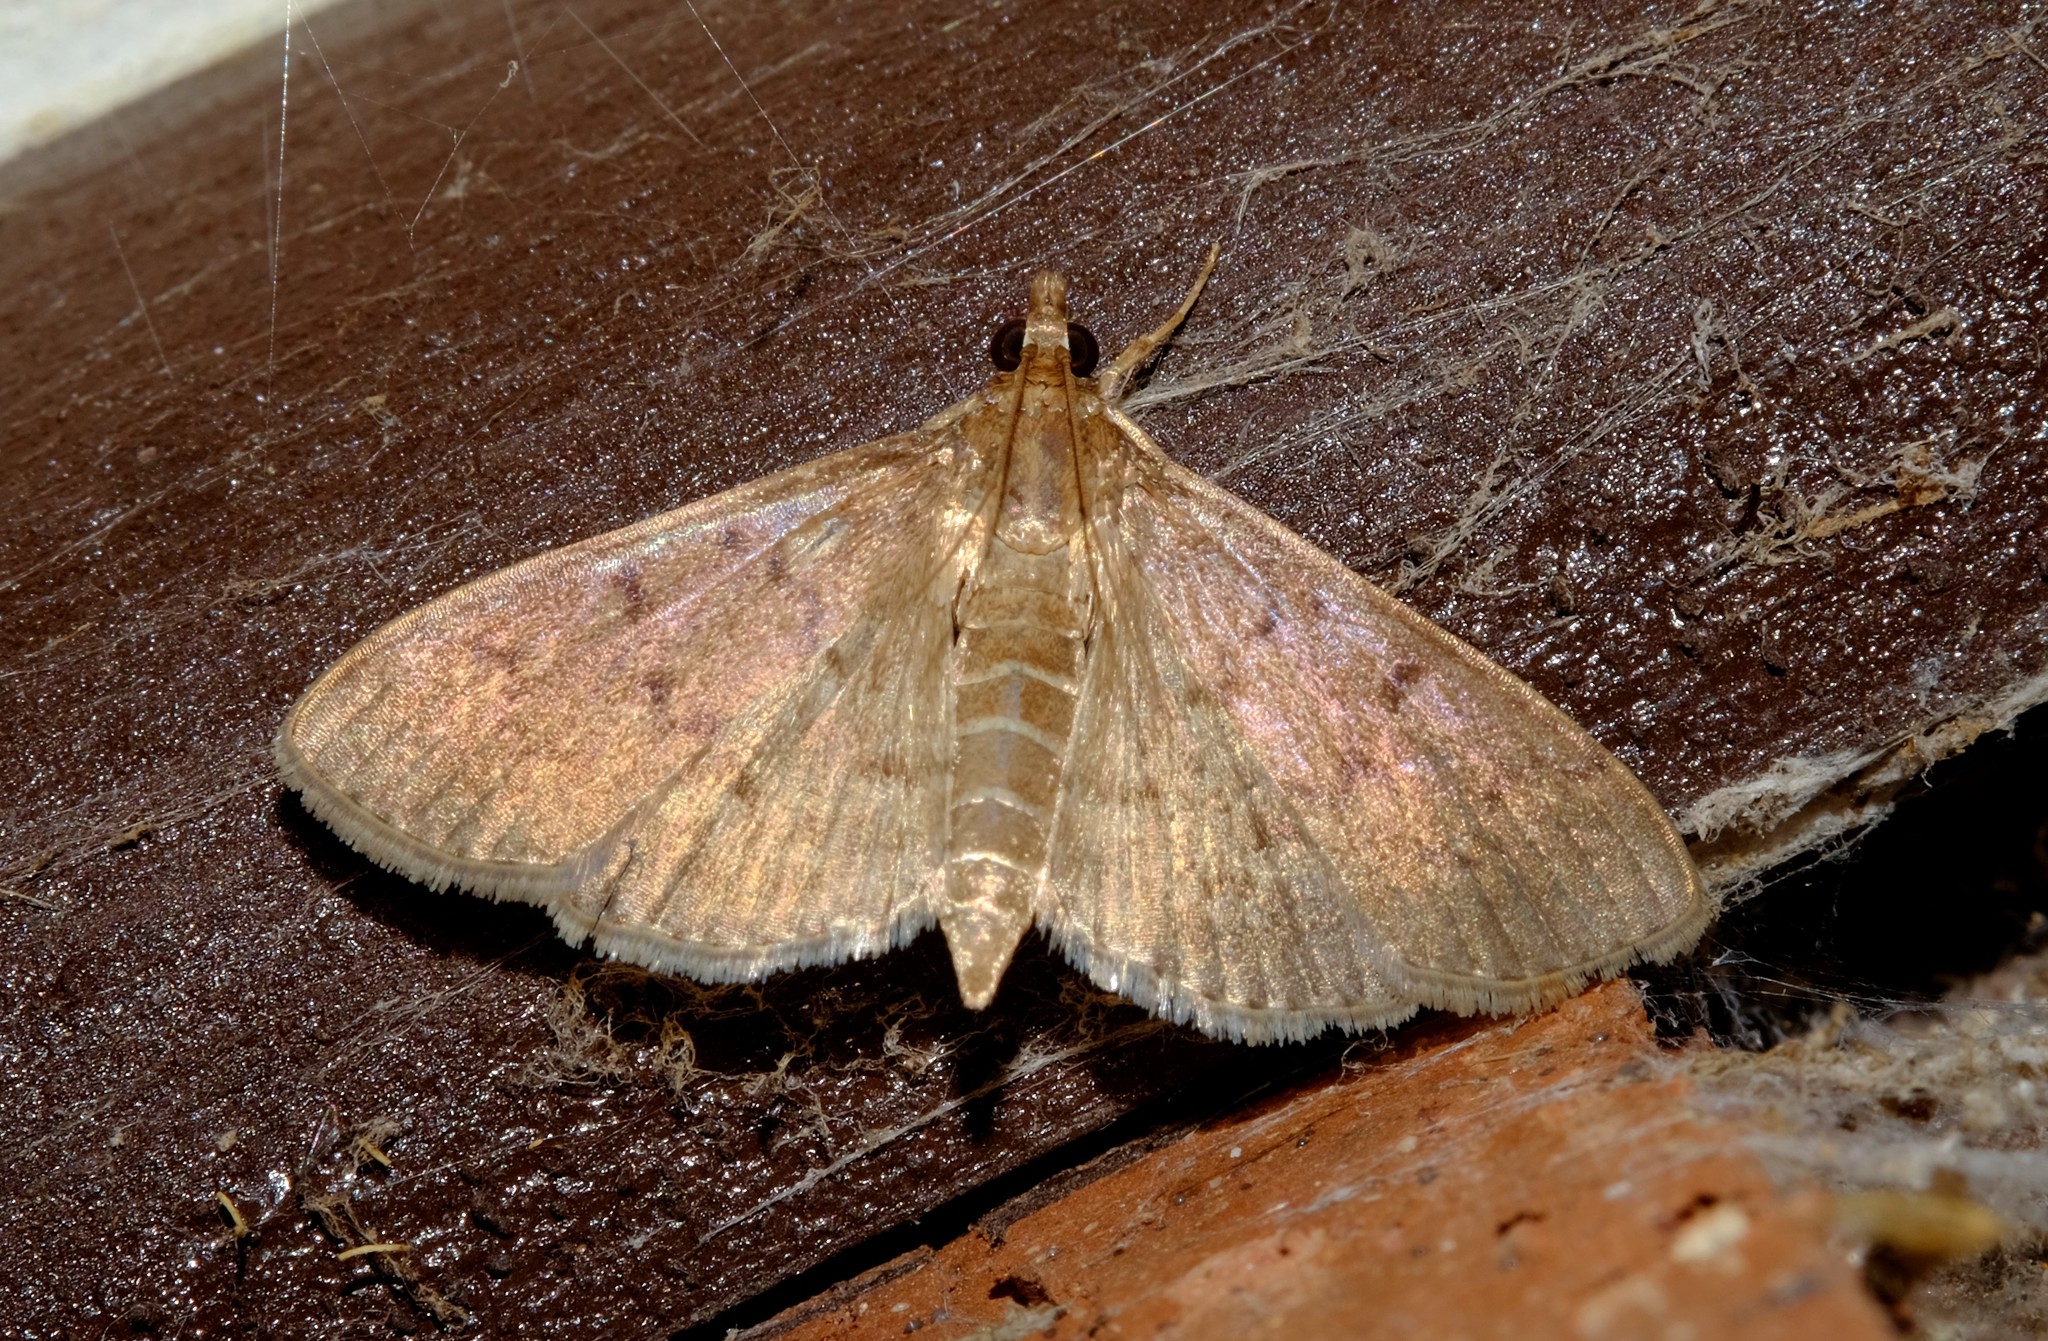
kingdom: Animalia
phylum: Arthropoda
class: Insecta
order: Lepidoptera
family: Crambidae
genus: Herpetogramma
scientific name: Herpetogramma licarsisalis
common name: Grass webworm
